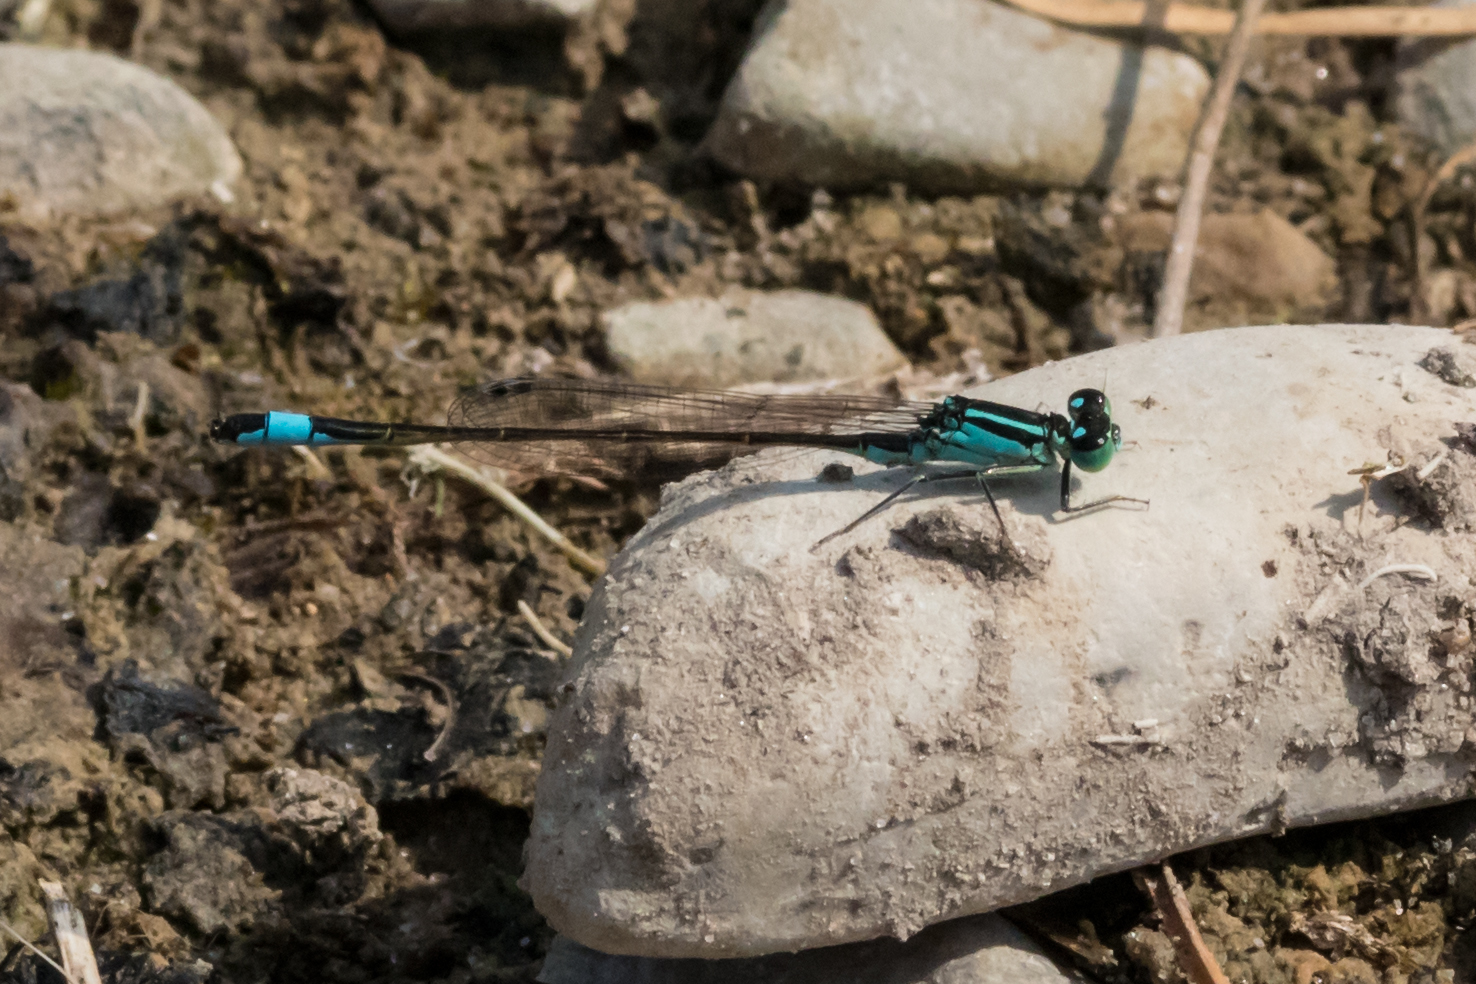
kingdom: Animalia
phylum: Arthropoda
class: Insecta
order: Odonata
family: Coenagrionidae
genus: Ischnura
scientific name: Ischnura elegans
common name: Blue-tailed damselfly
